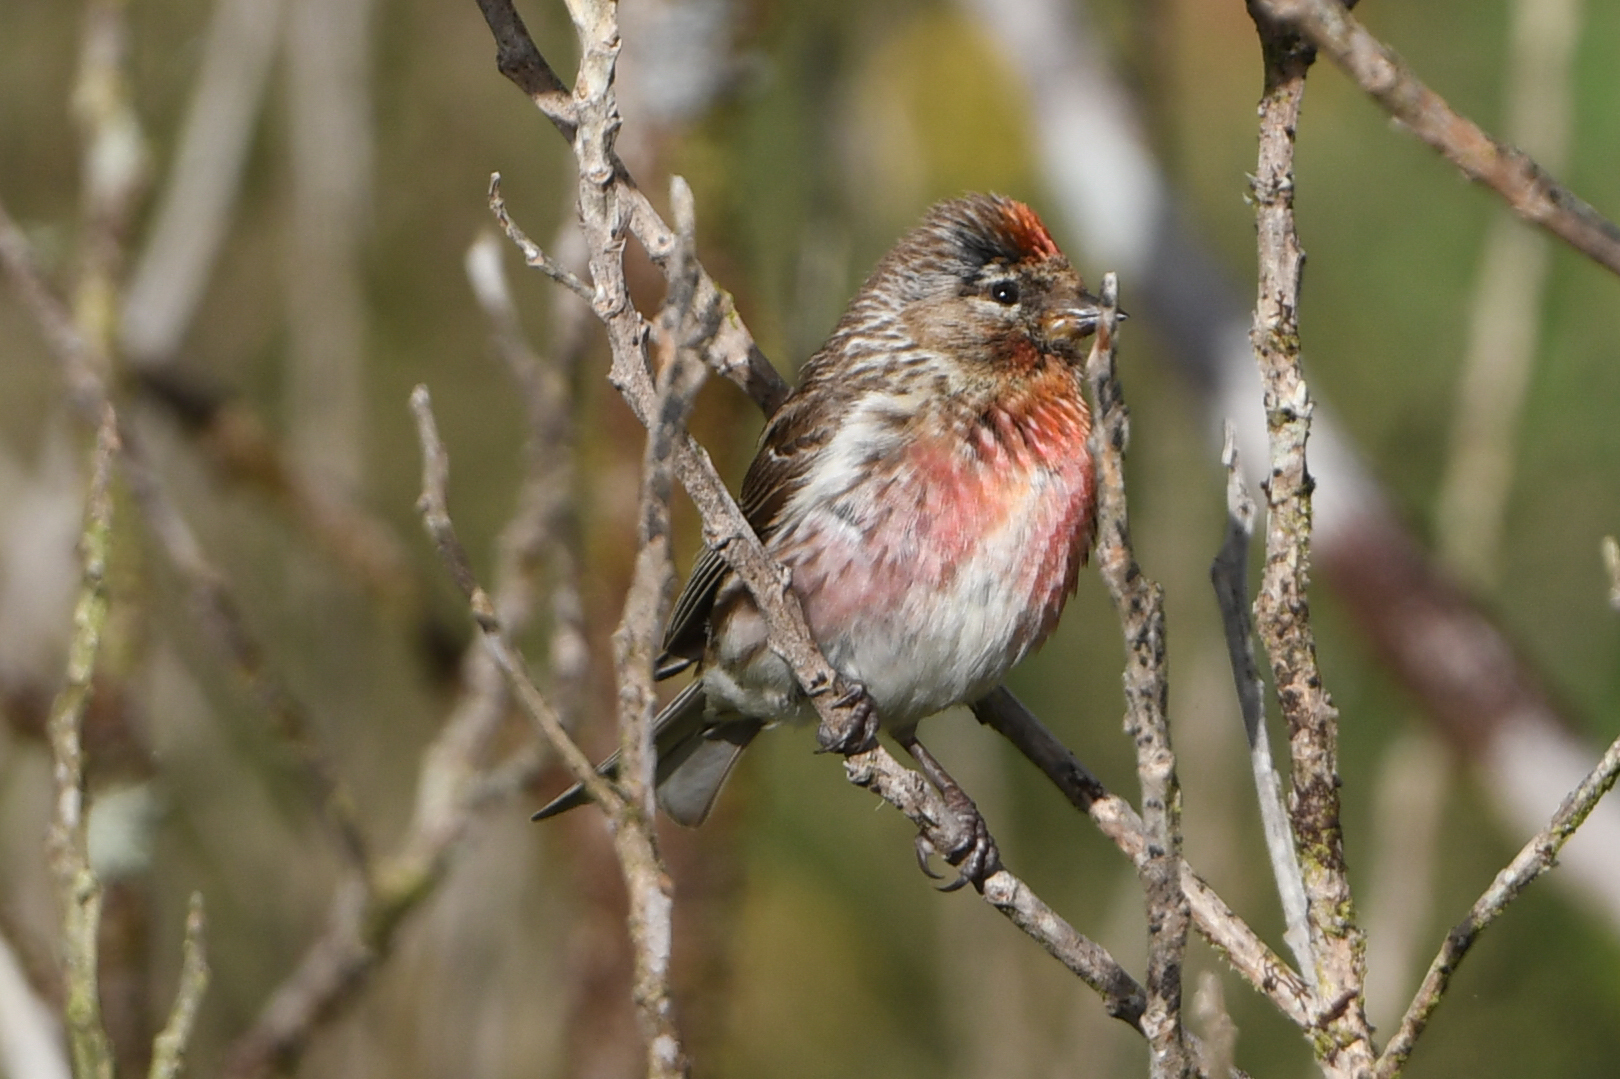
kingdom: Animalia
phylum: Chordata
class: Aves
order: Passeriformes
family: Fringillidae
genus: Acanthis
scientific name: Acanthis flammea
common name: Common redpoll
